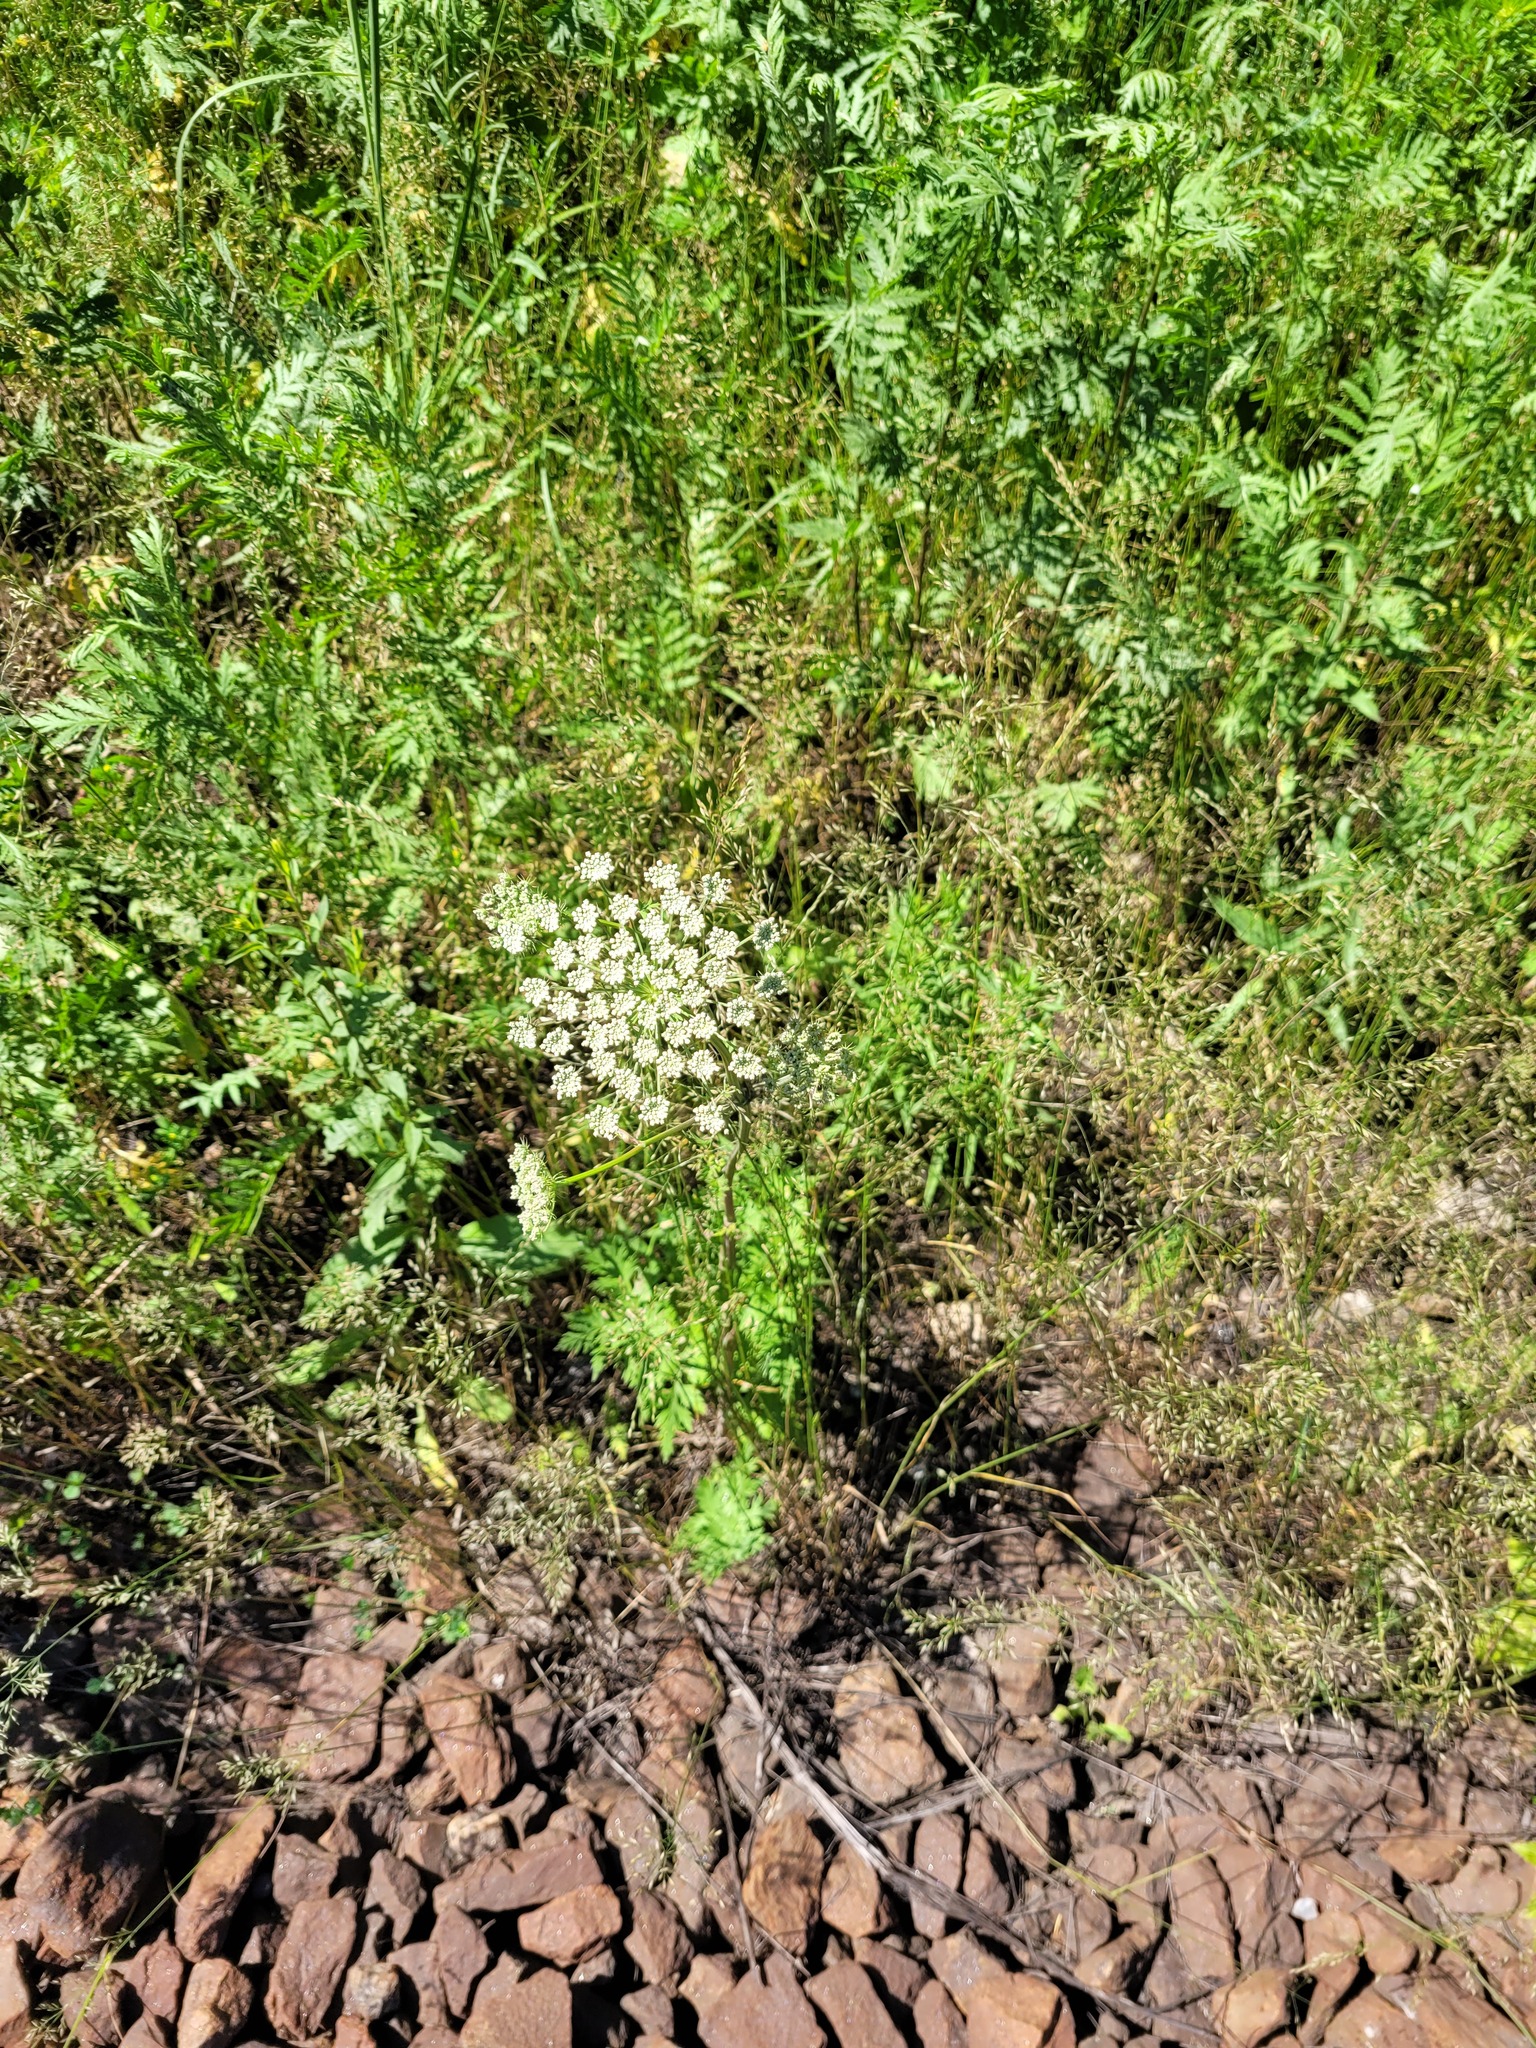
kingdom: Plantae
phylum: Tracheophyta
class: Magnoliopsida
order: Apiales
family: Apiaceae
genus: Seseli
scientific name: Seseli libanotis
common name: Mooncarrot
